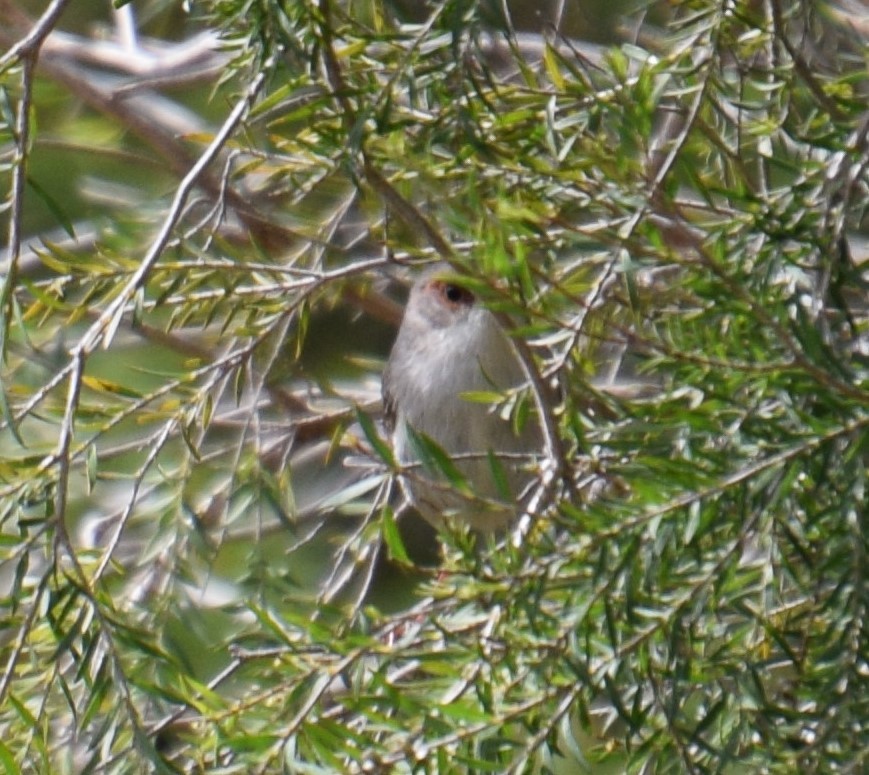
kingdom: Animalia
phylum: Chordata
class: Aves
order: Passeriformes
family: Maluridae
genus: Malurus
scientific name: Malurus cyaneus
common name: Superb fairywren
